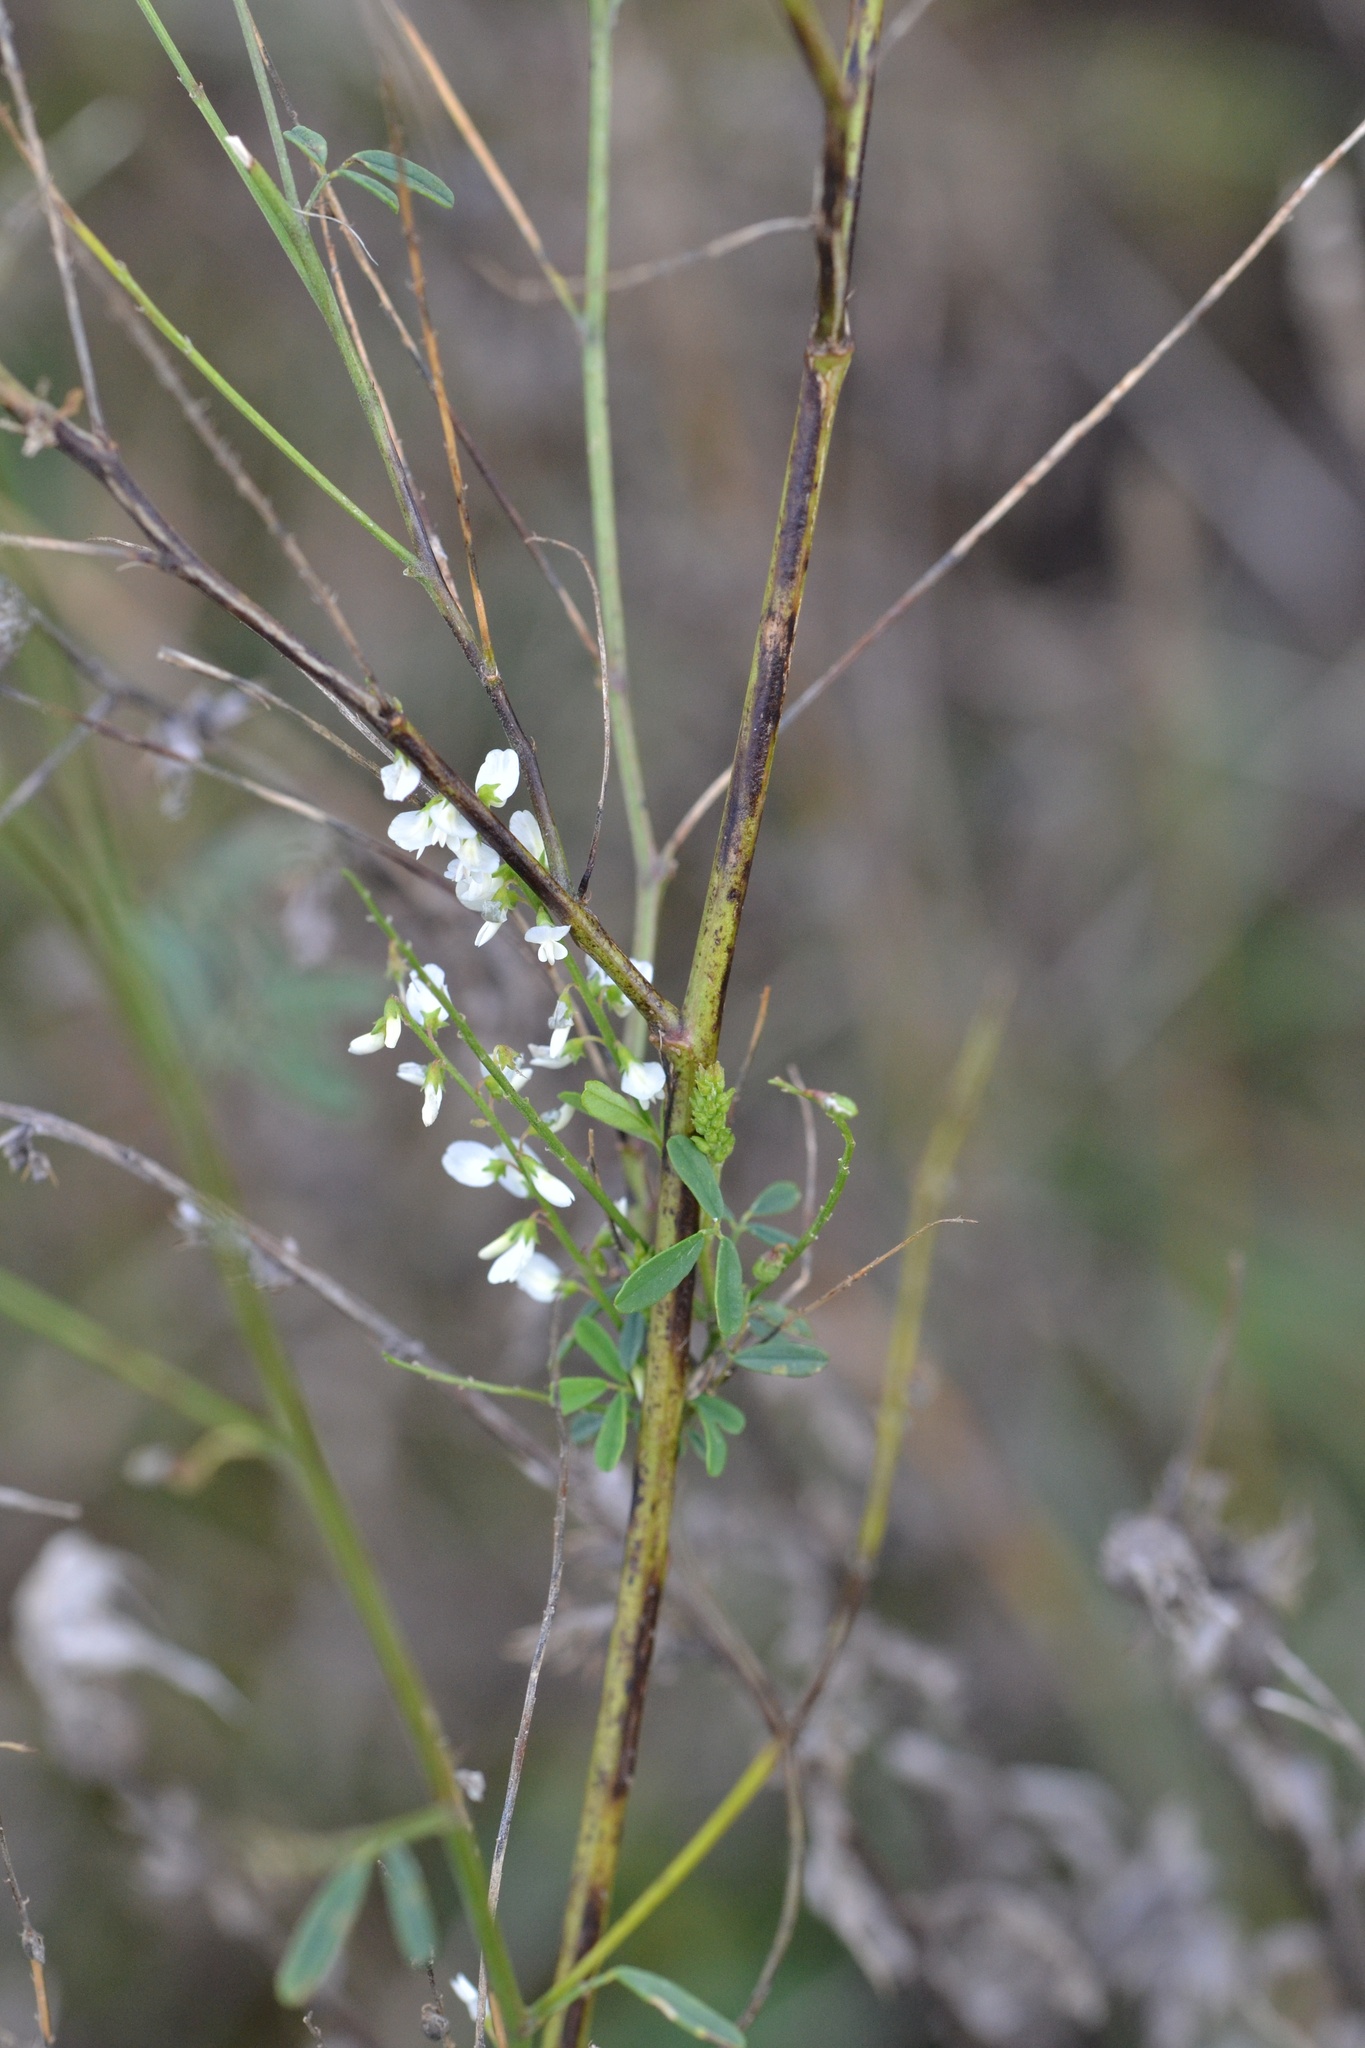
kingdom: Plantae
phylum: Tracheophyta
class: Magnoliopsida
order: Fabales
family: Fabaceae
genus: Melilotus
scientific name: Melilotus albus
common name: White melilot
